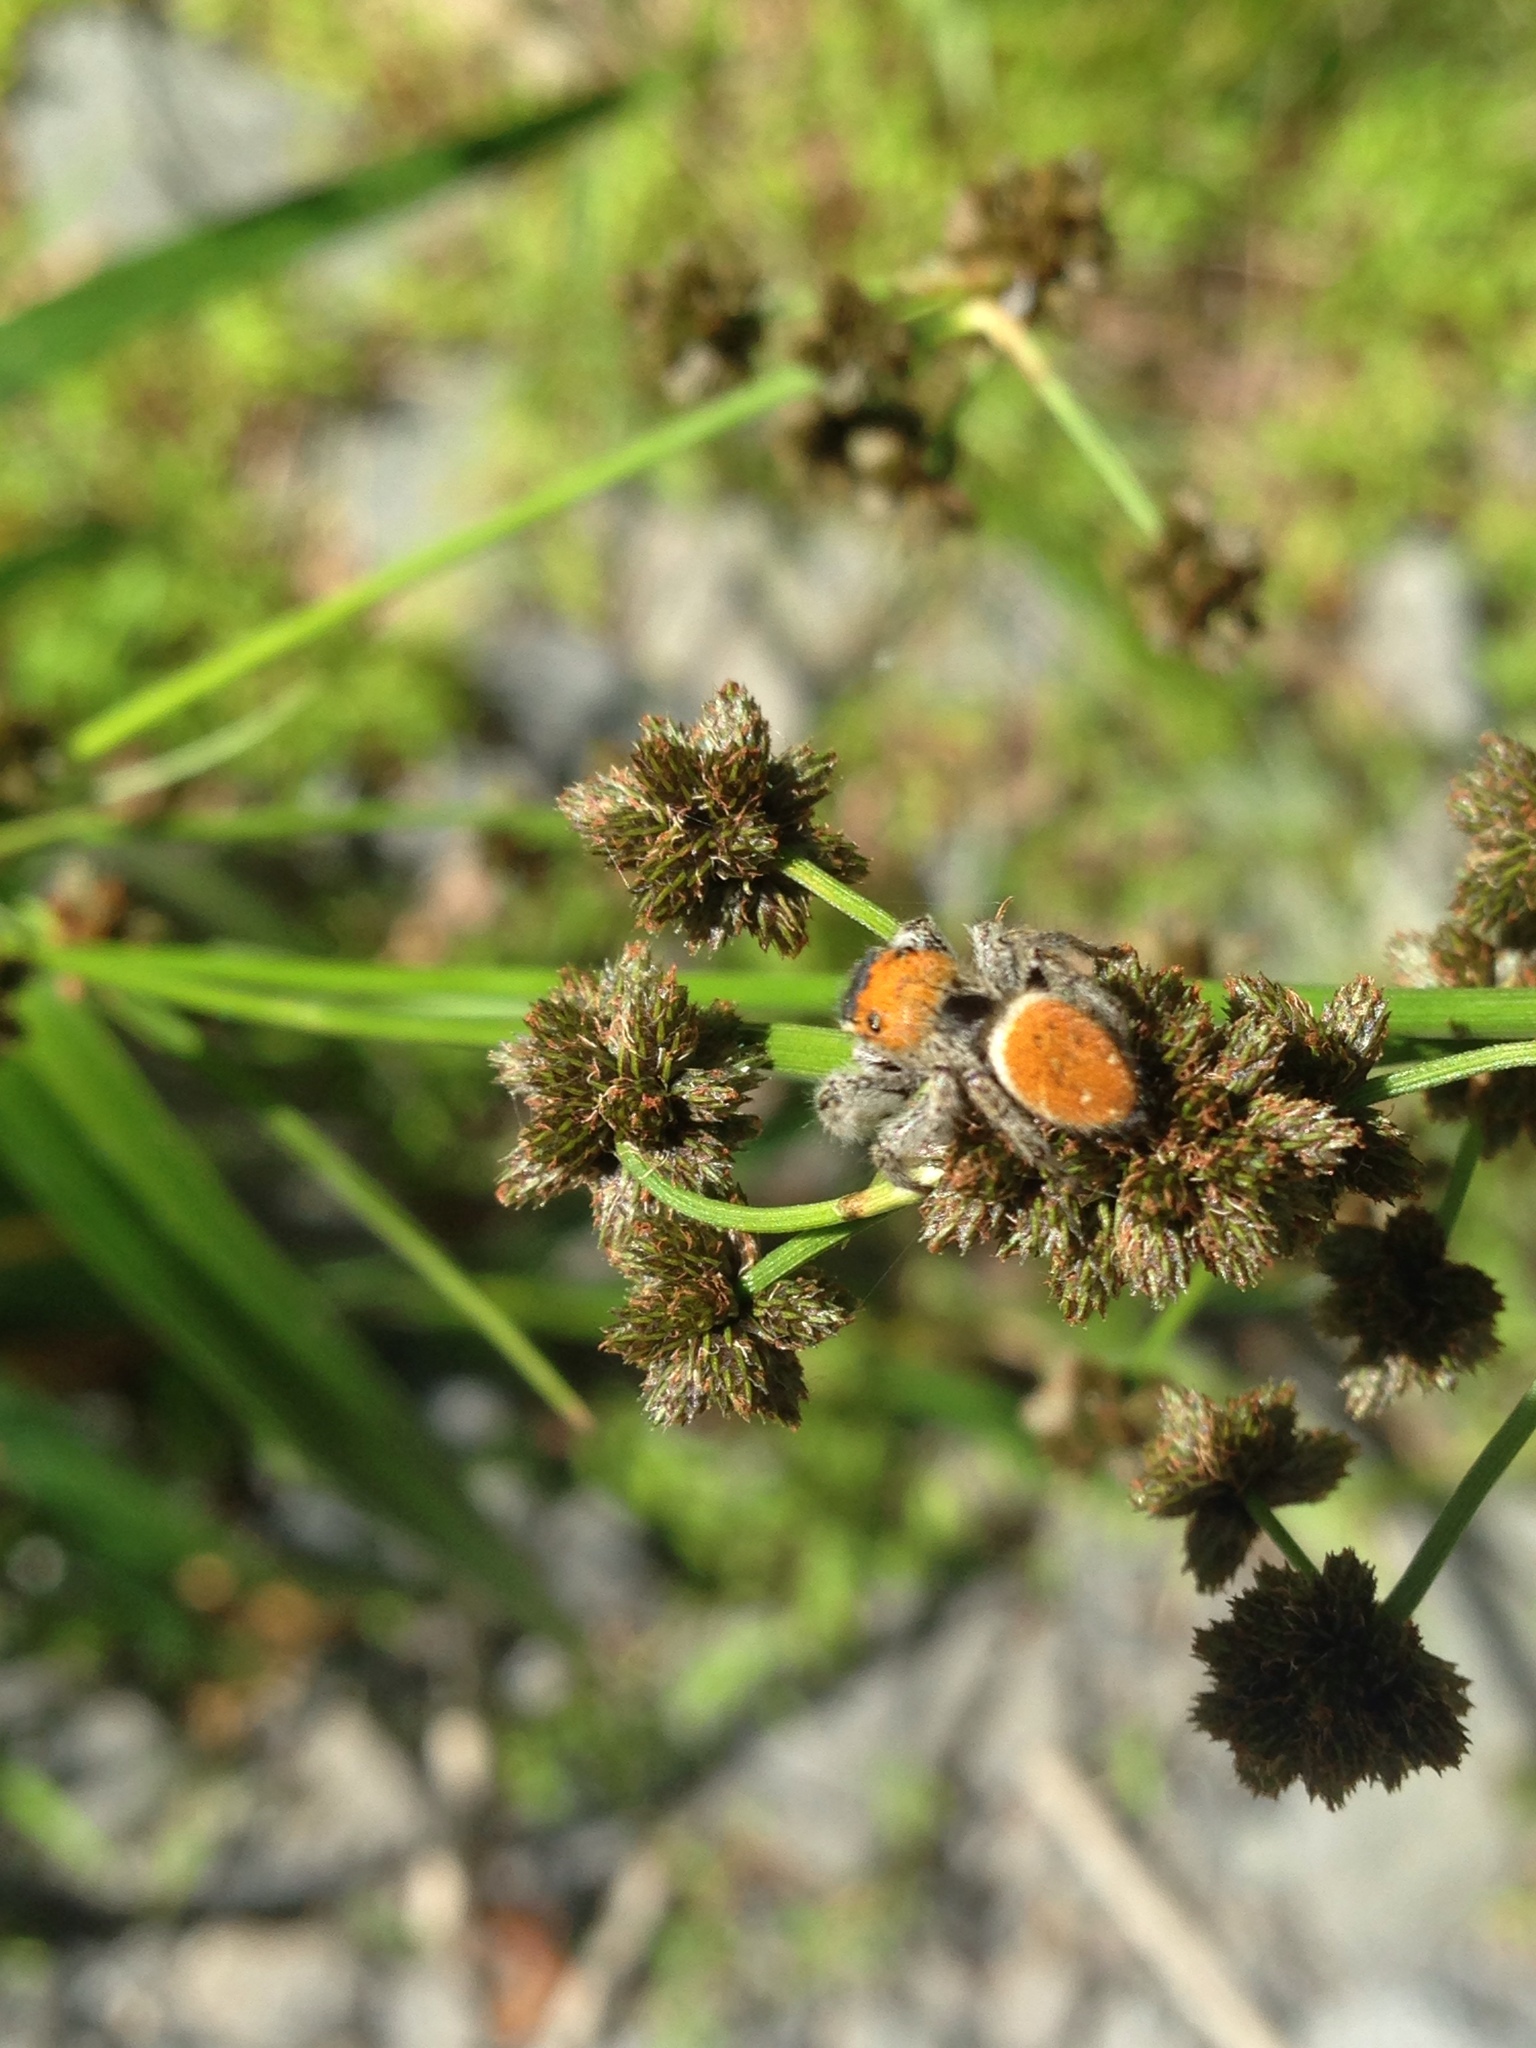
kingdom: Animalia
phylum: Arthropoda
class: Arachnida
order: Araneae
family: Salticidae
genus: Phidippus
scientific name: Phidippus whitmani
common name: Whitman's jumping spider
